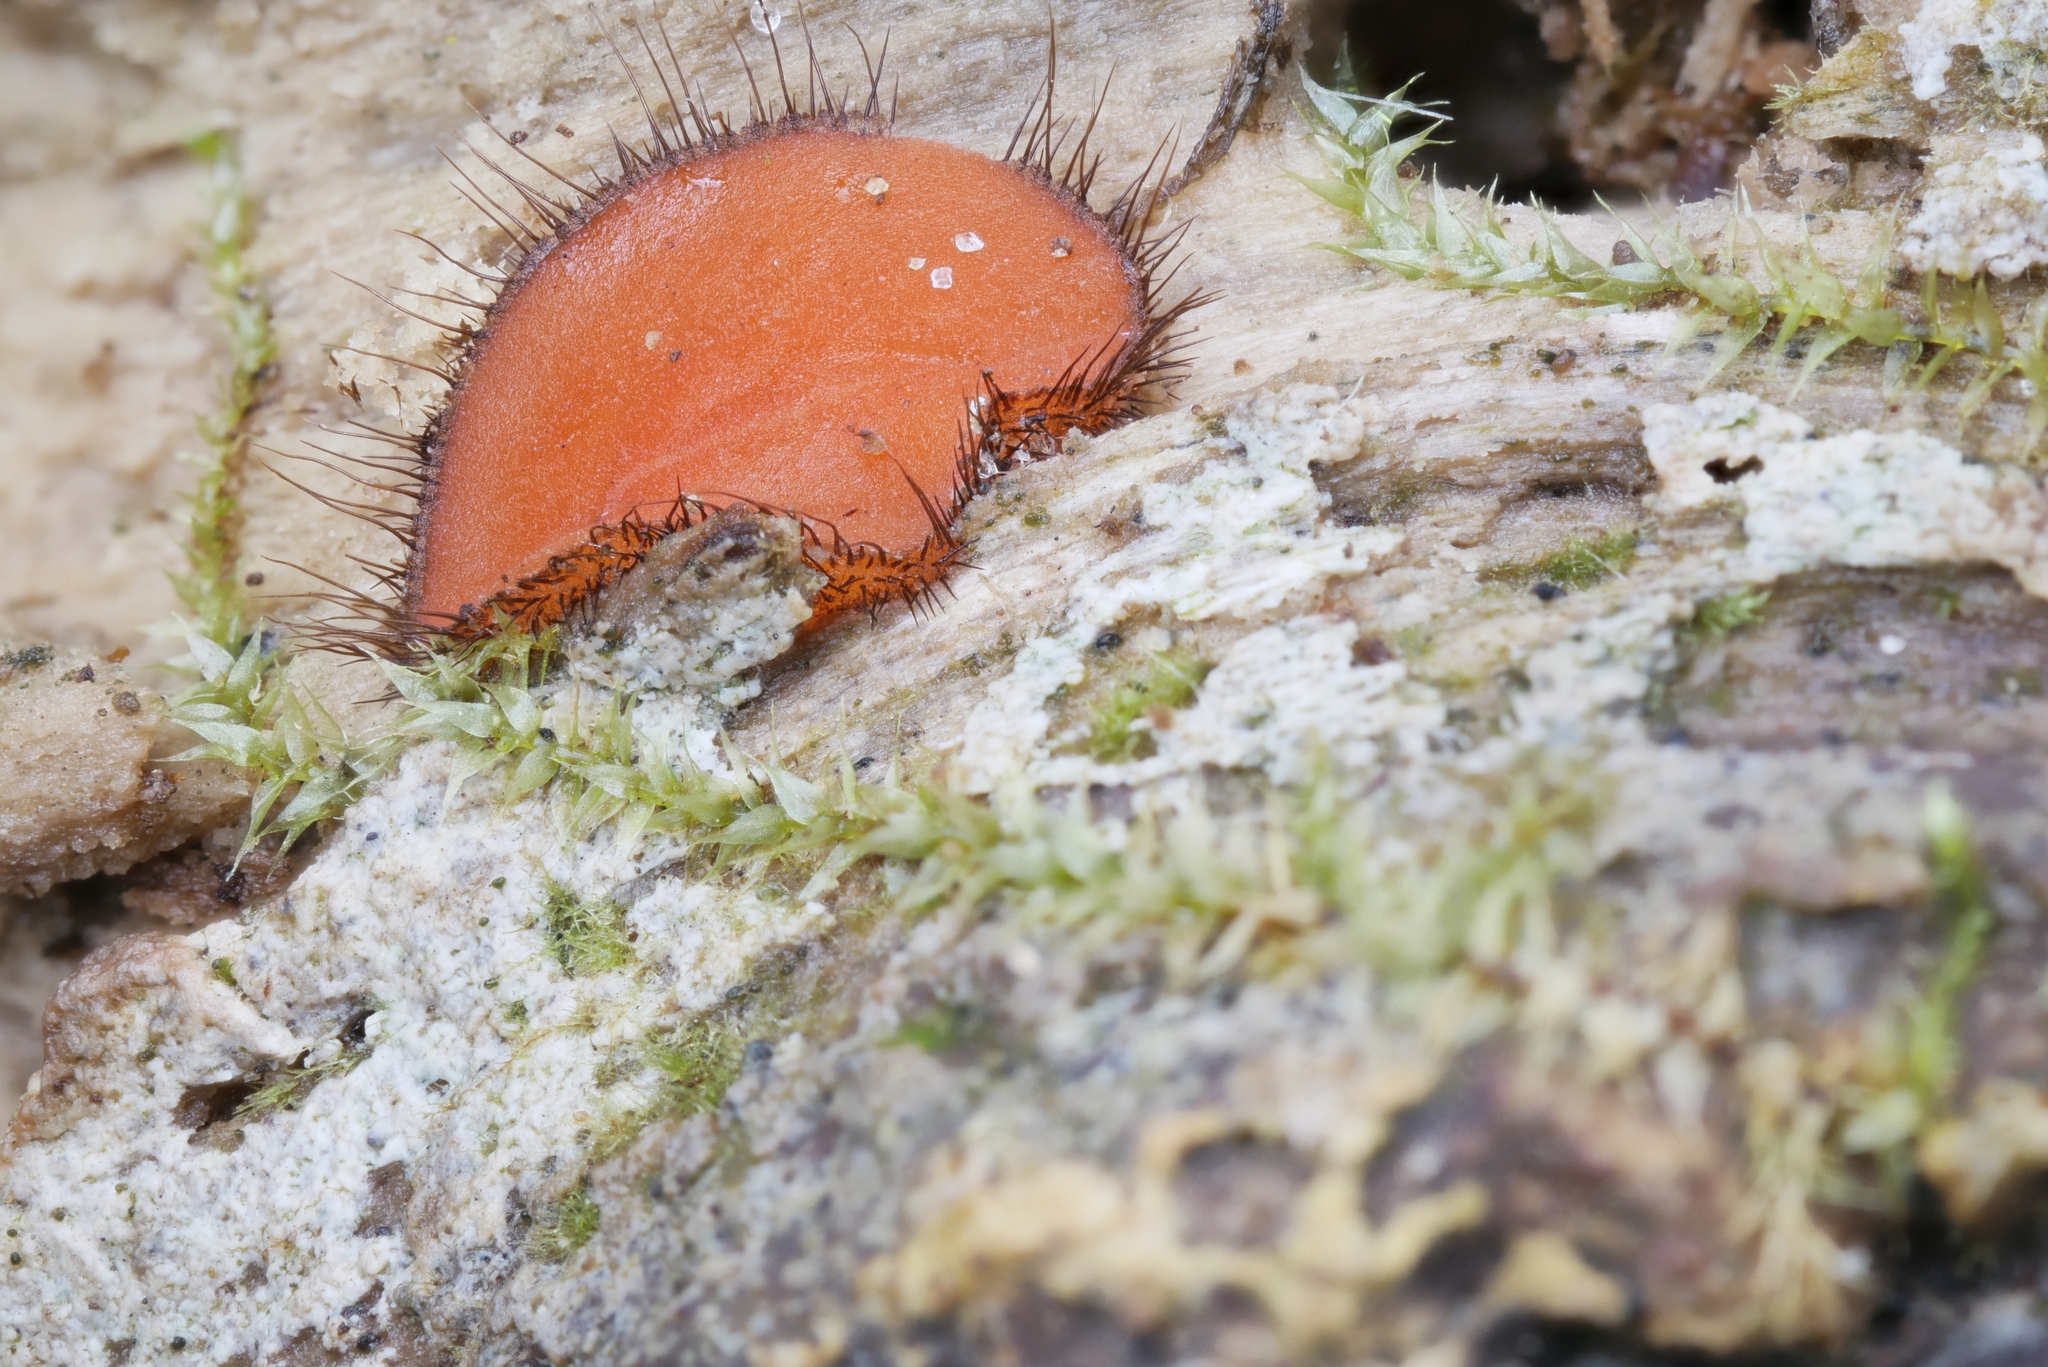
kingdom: Fungi
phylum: Ascomycota
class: Pezizomycetes
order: Pezizales
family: Pyronemataceae
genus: Scutellinia
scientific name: Scutellinia scutellata
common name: Common eyelash
